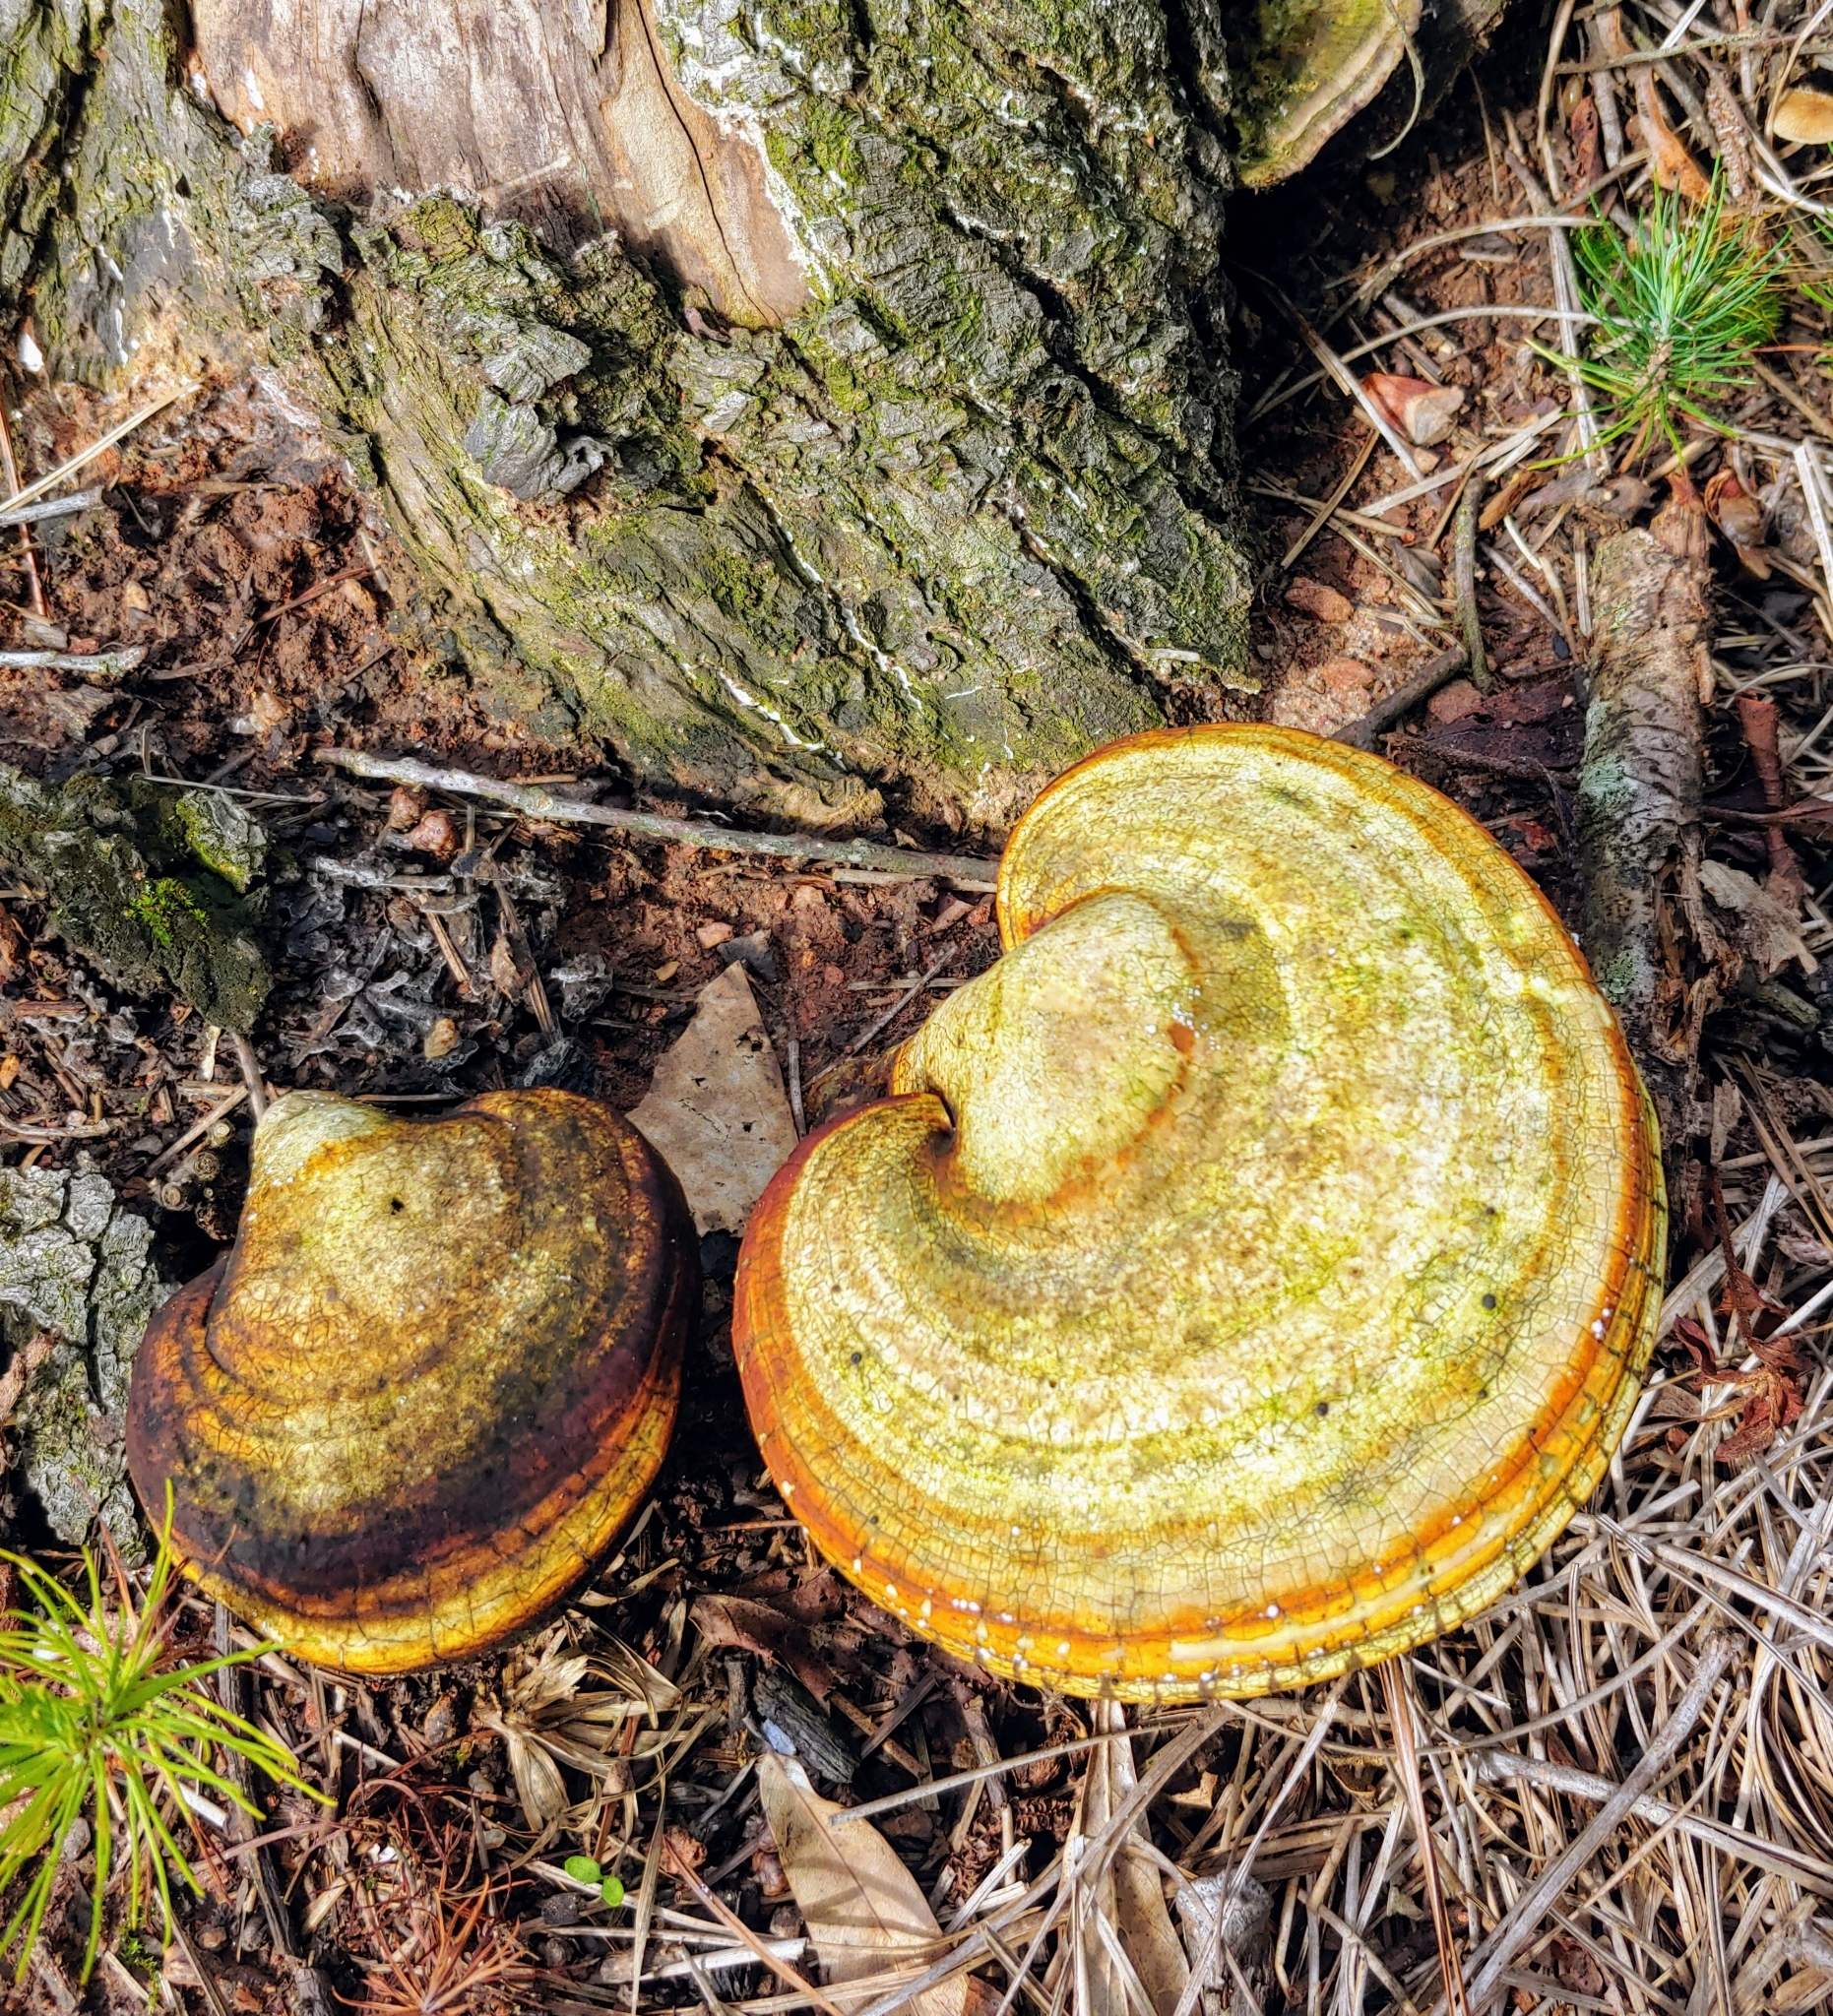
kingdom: Fungi
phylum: Basidiomycota
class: Agaricomycetes
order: Polyporales
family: Polyporaceae
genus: Ganoderma
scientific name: Ganoderma curtisii
